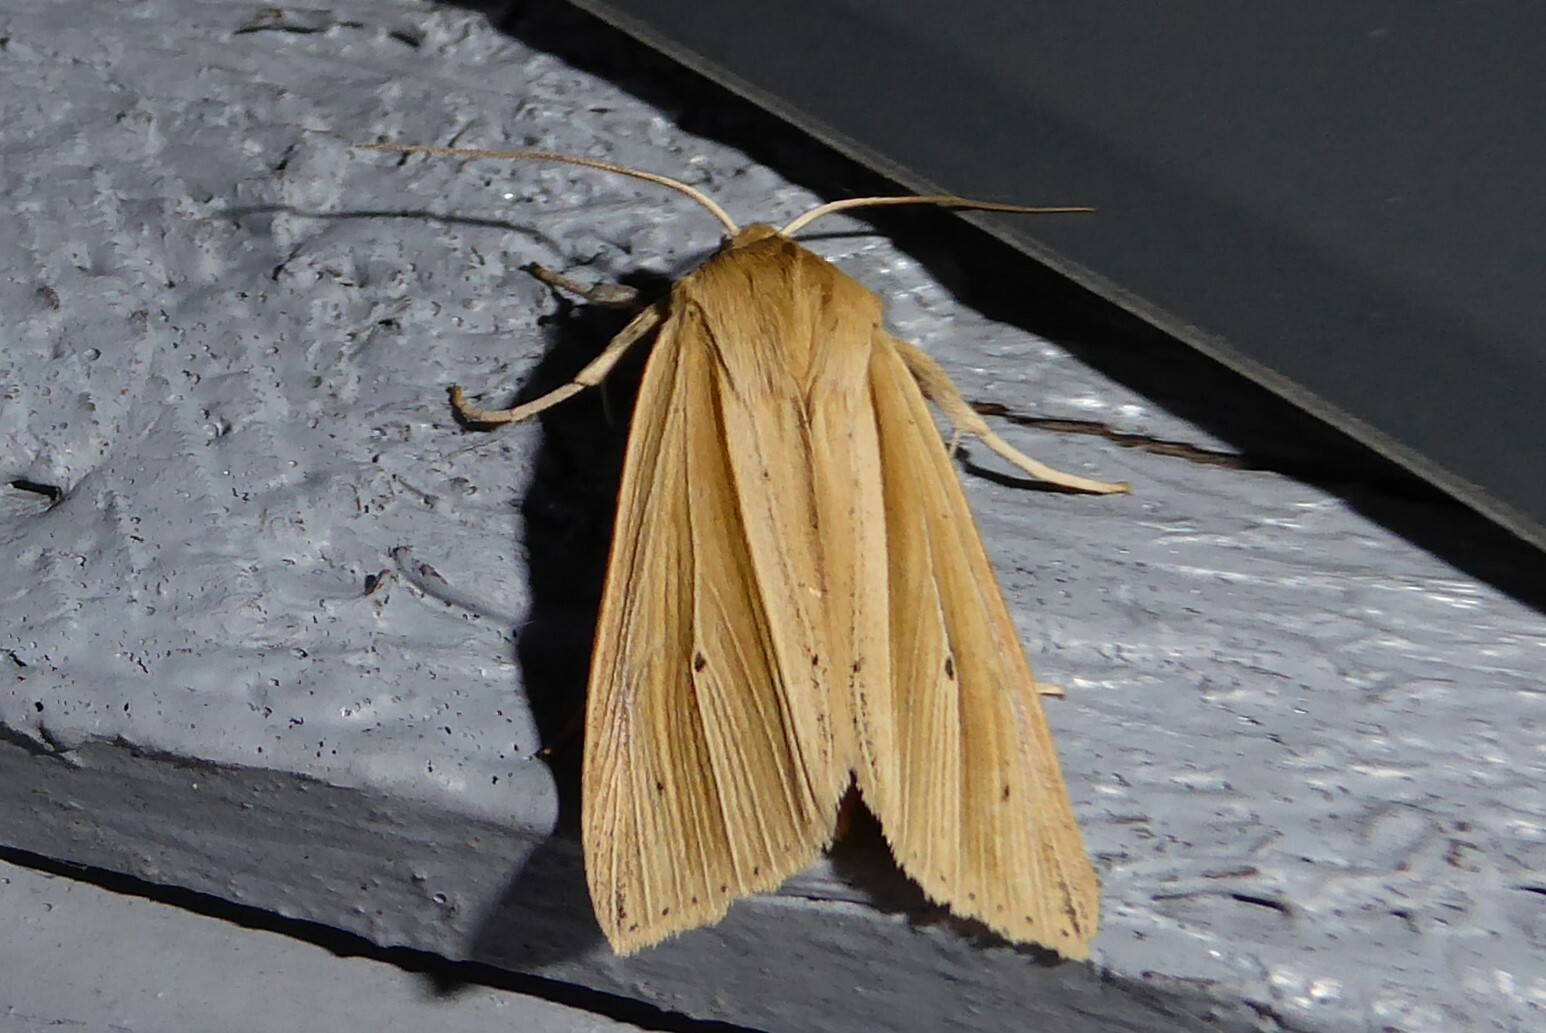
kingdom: Animalia
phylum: Arthropoda
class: Insecta
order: Lepidoptera
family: Noctuidae
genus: Ichneutica
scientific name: Ichneutica sulcana
